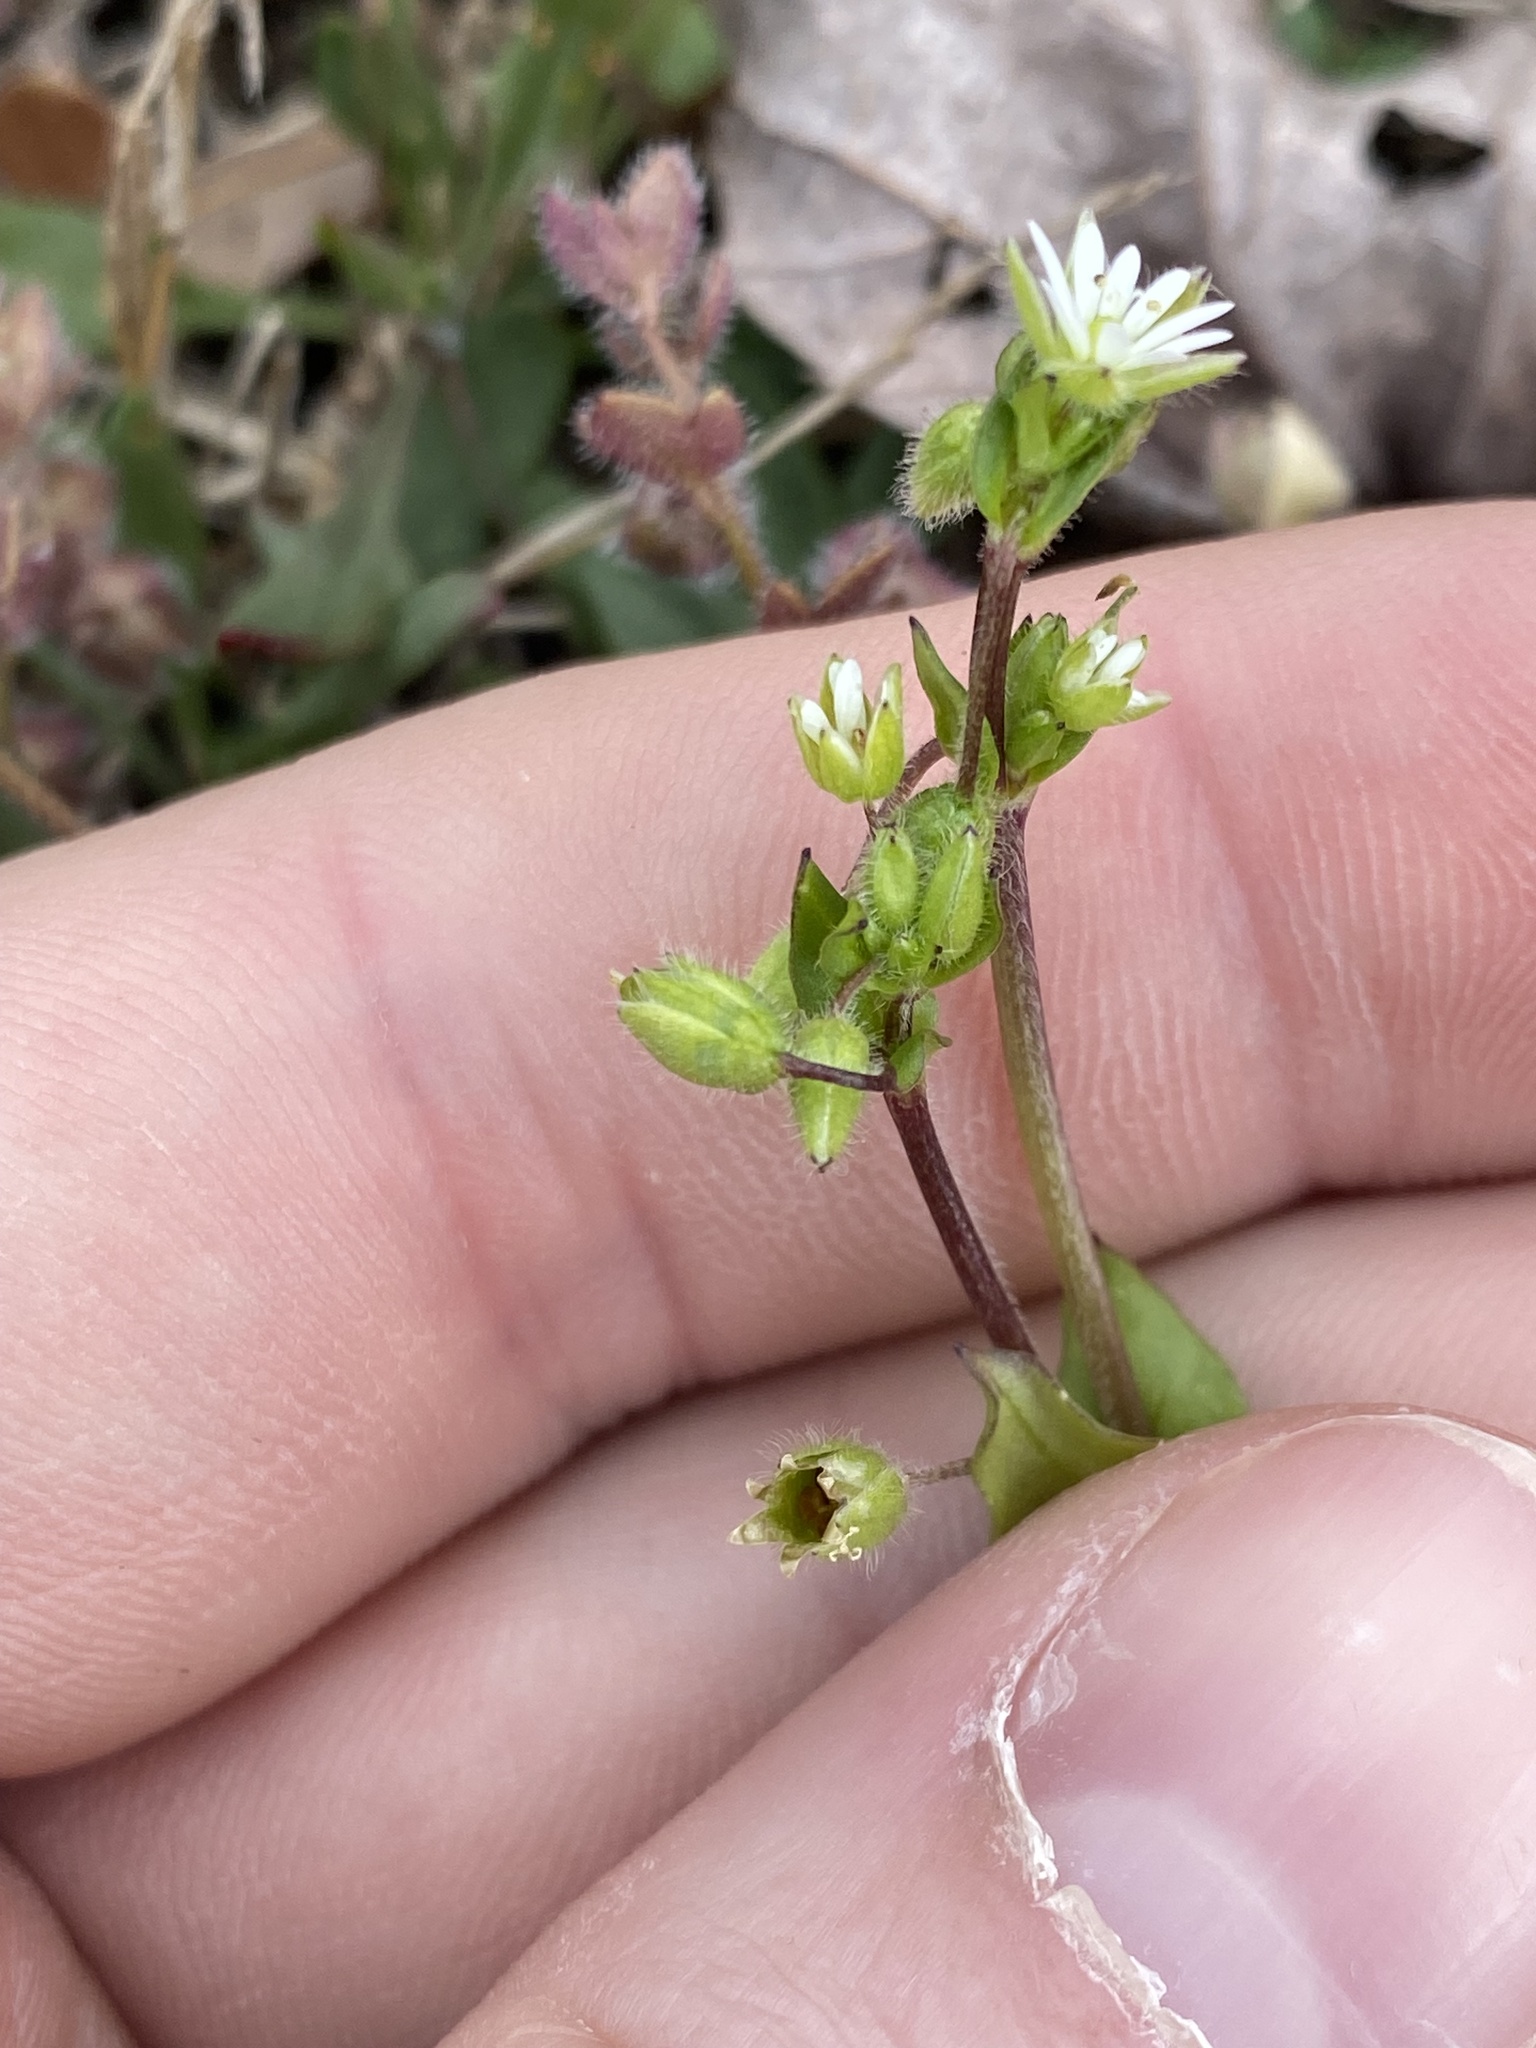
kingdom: Plantae
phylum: Tracheophyta
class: Magnoliopsida
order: Caryophyllales
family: Caryophyllaceae
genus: Stellaria
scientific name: Stellaria media
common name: Common chickweed
